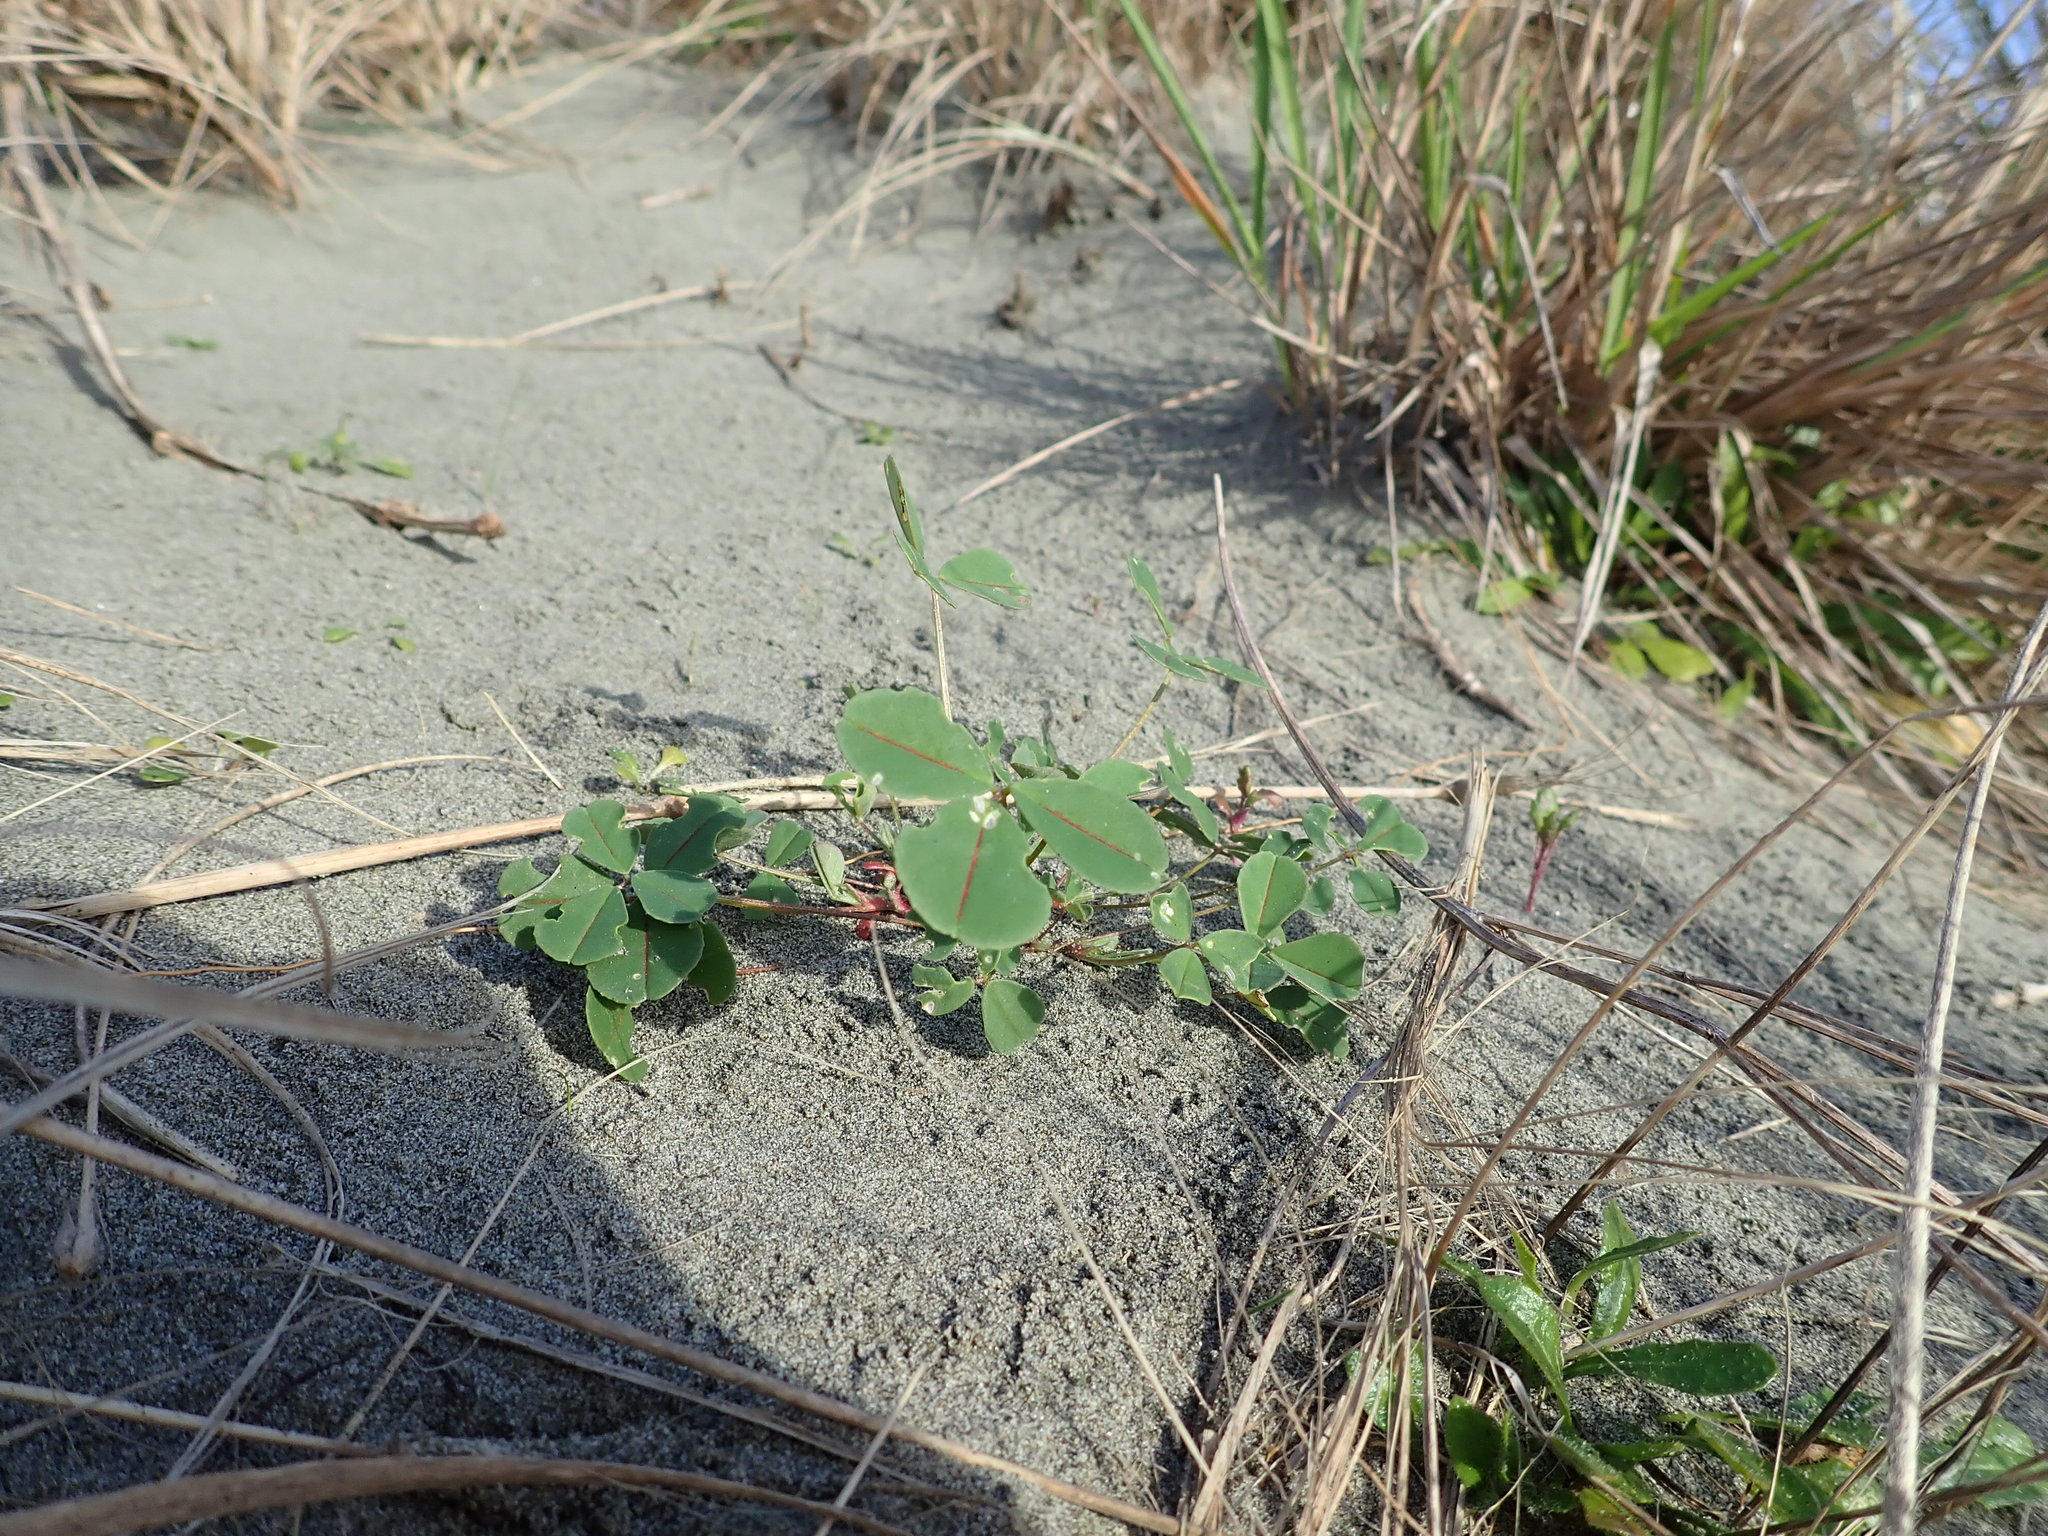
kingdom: Plantae
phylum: Tracheophyta
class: Magnoliopsida
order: Fabales
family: Fabaceae
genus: Melilotus
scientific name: Melilotus indicus
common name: Small melilot
